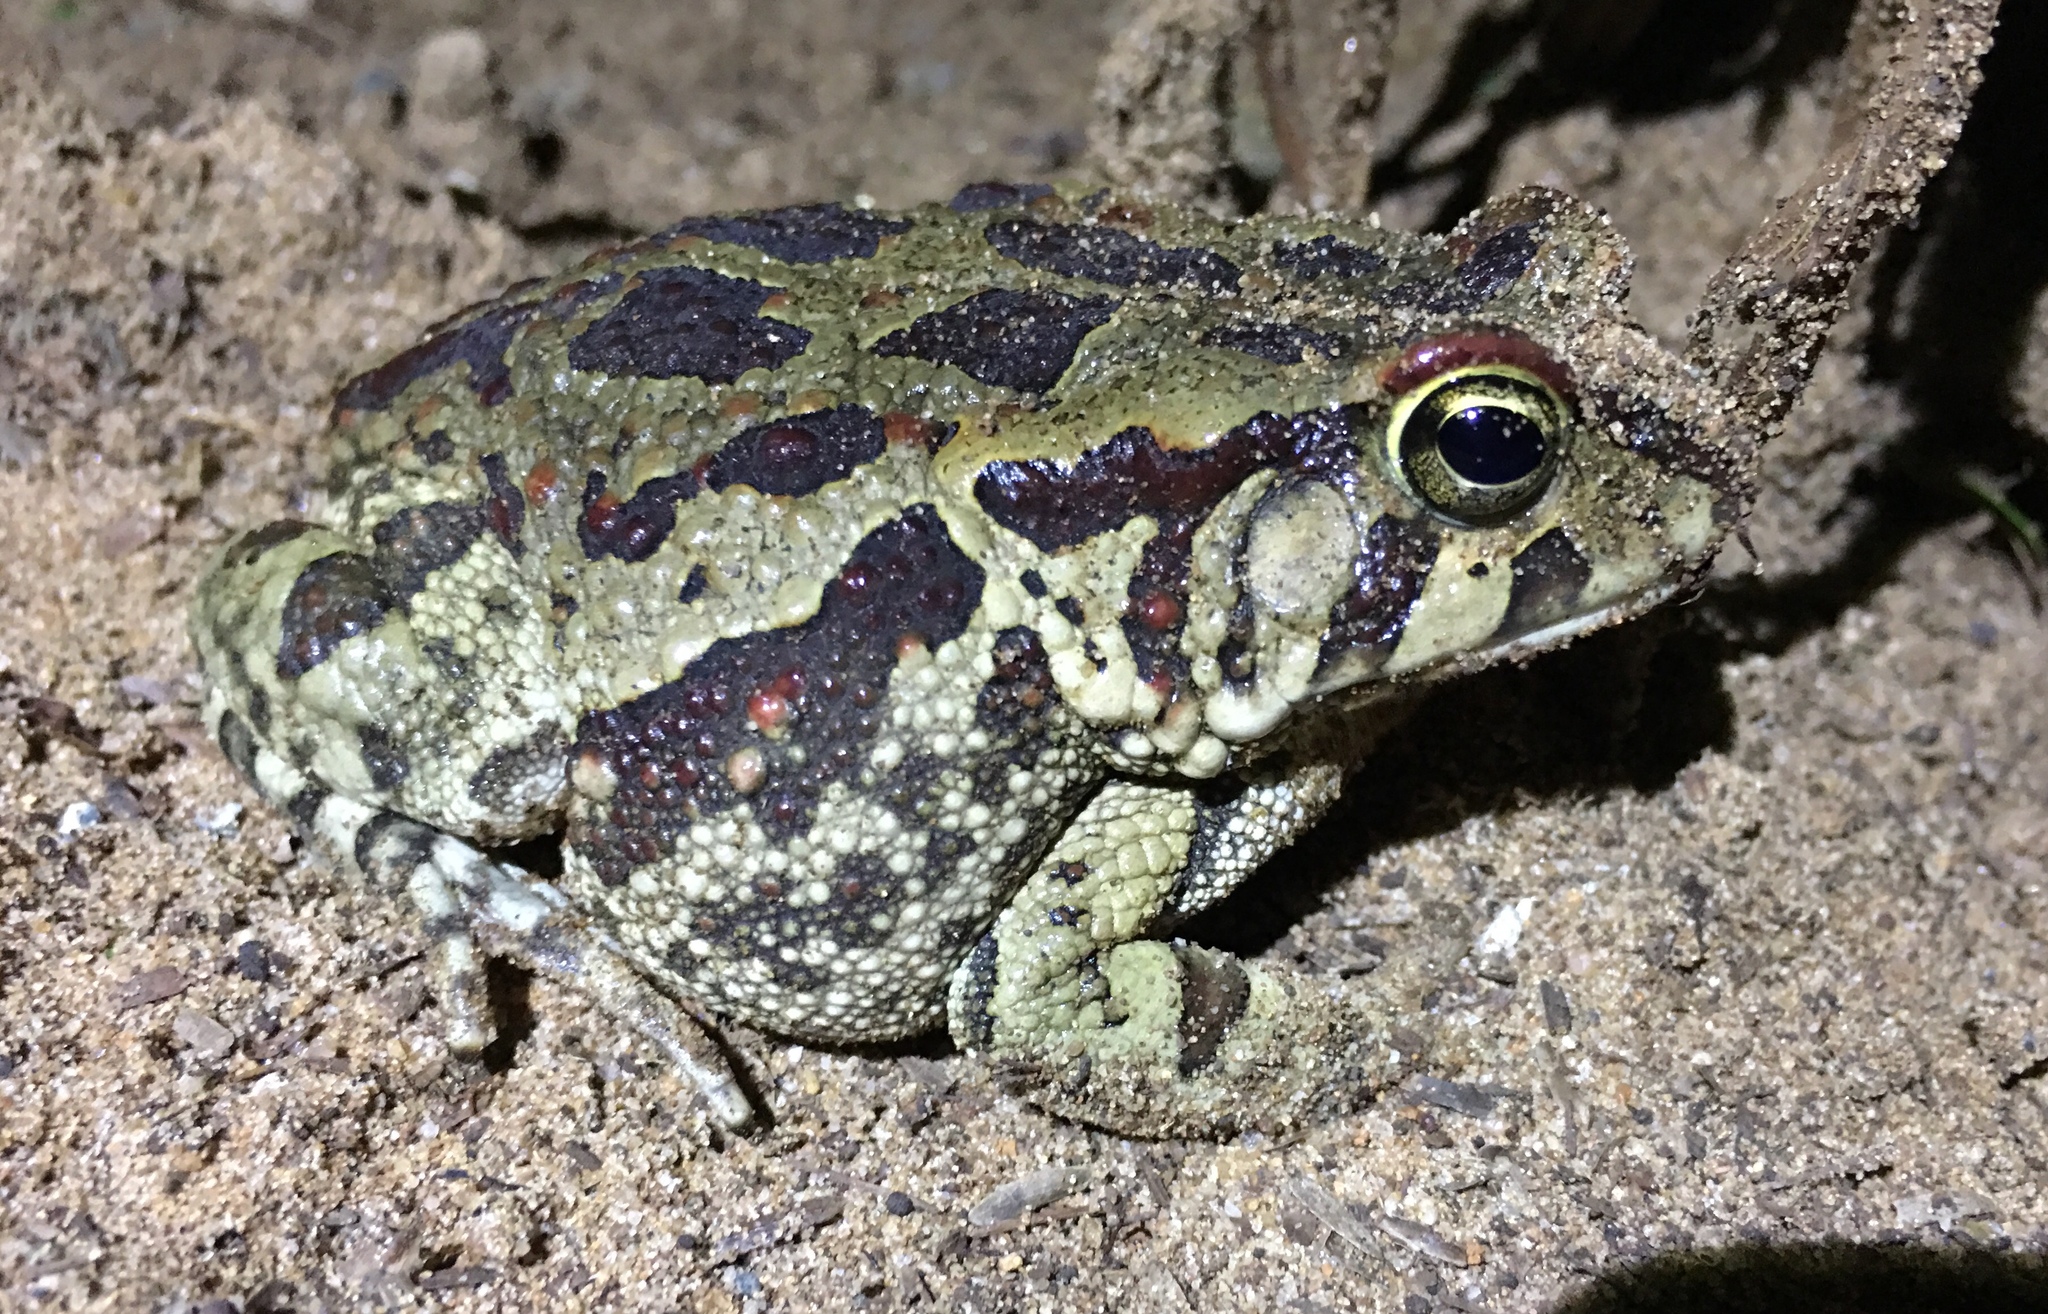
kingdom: Animalia
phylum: Chordata
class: Amphibia
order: Anura
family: Bufonidae
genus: Sclerophrys
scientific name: Sclerophrys garmani
